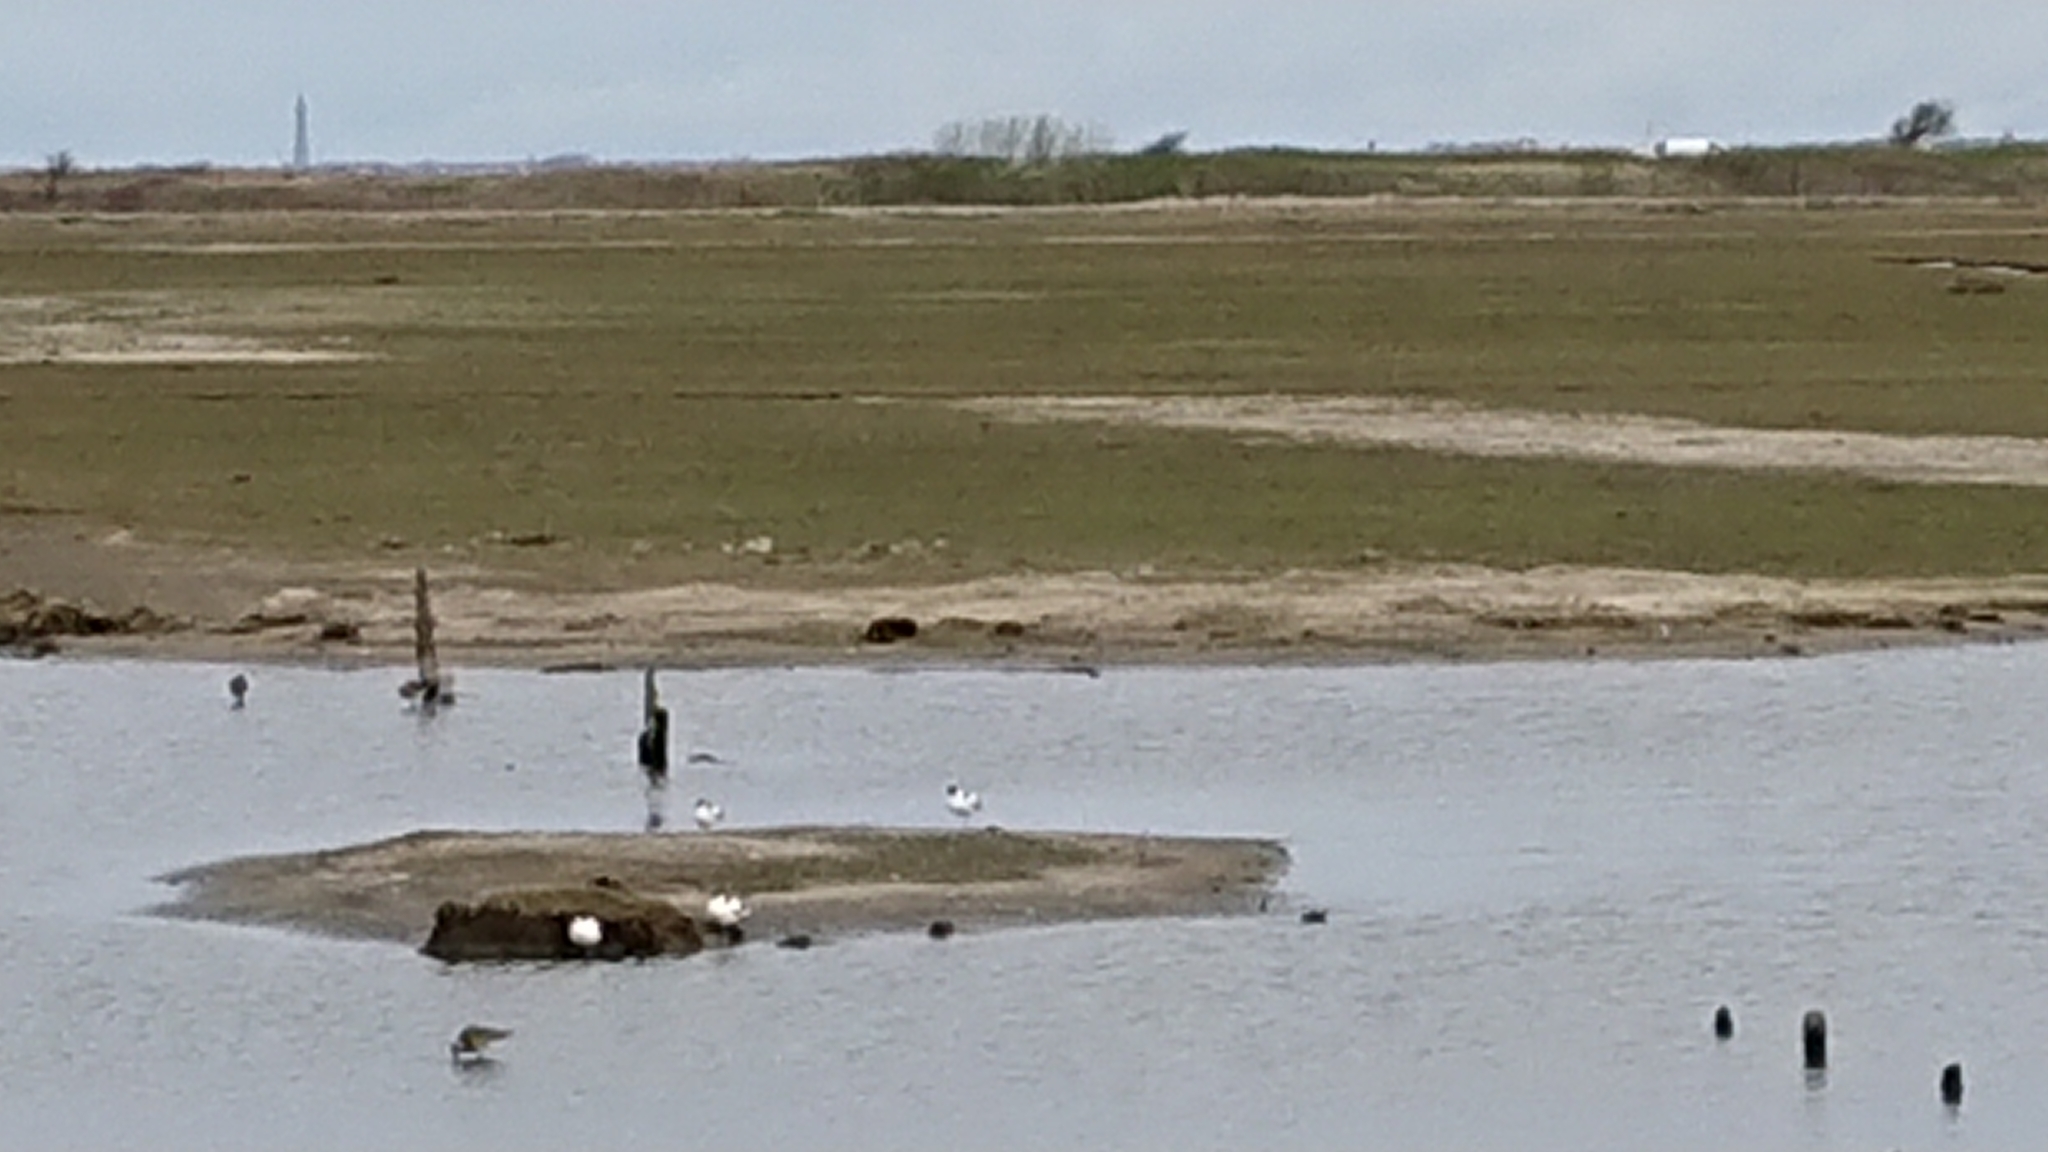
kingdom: Animalia
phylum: Chordata
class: Aves
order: Charadriiformes
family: Recurvirostridae
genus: Recurvirostra
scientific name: Recurvirostra avosetta
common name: Pied avocet
